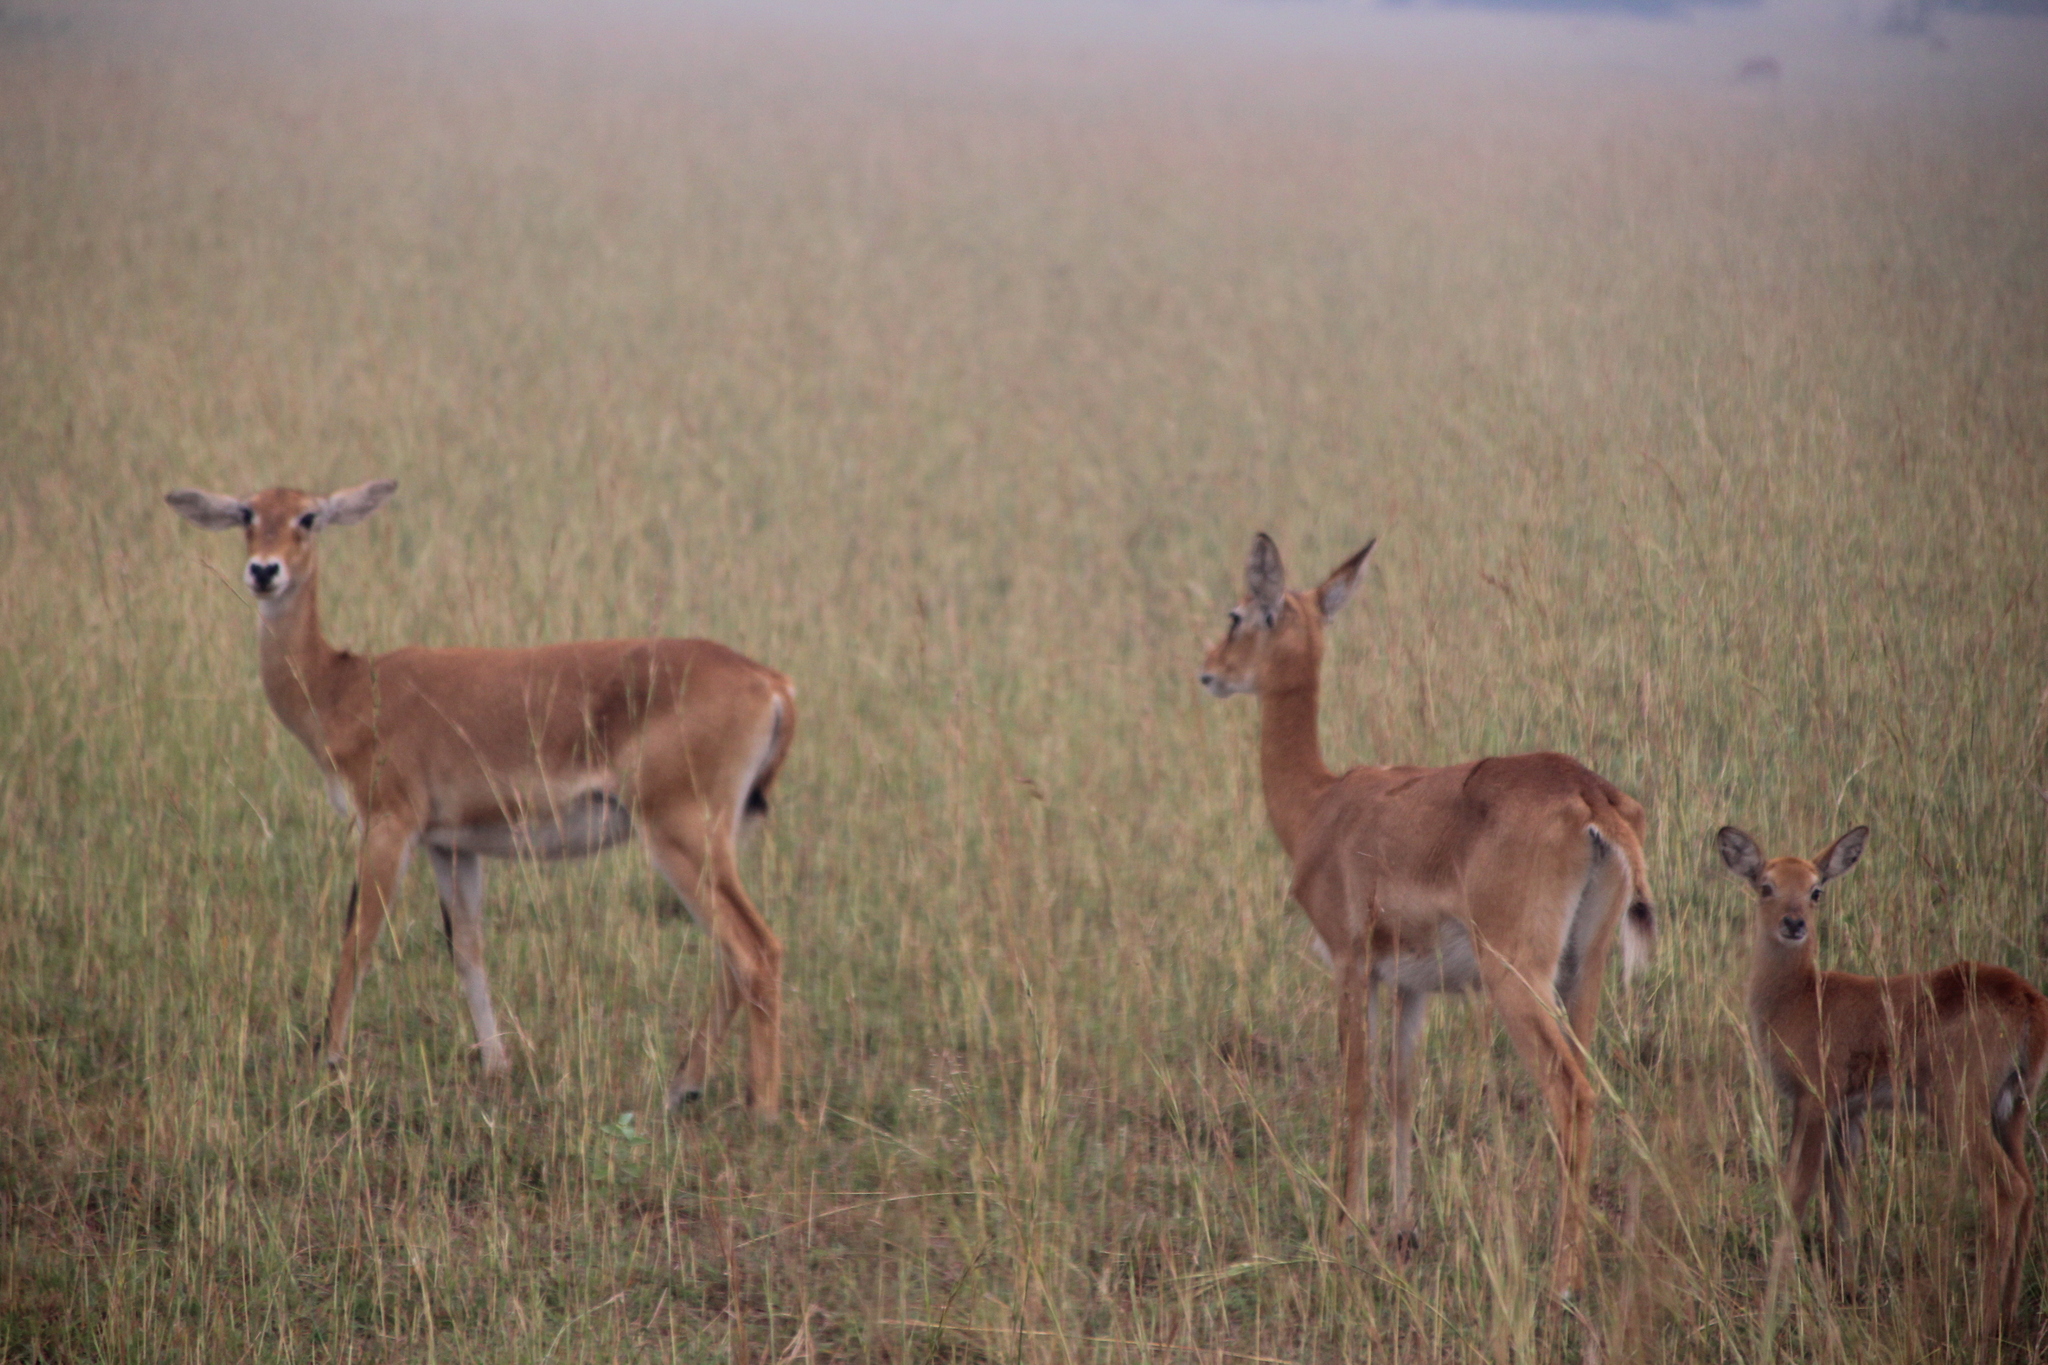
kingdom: Animalia
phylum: Chordata
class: Mammalia
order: Artiodactyla
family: Bovidae
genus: Kobus
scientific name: Kobus kob
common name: Kob
